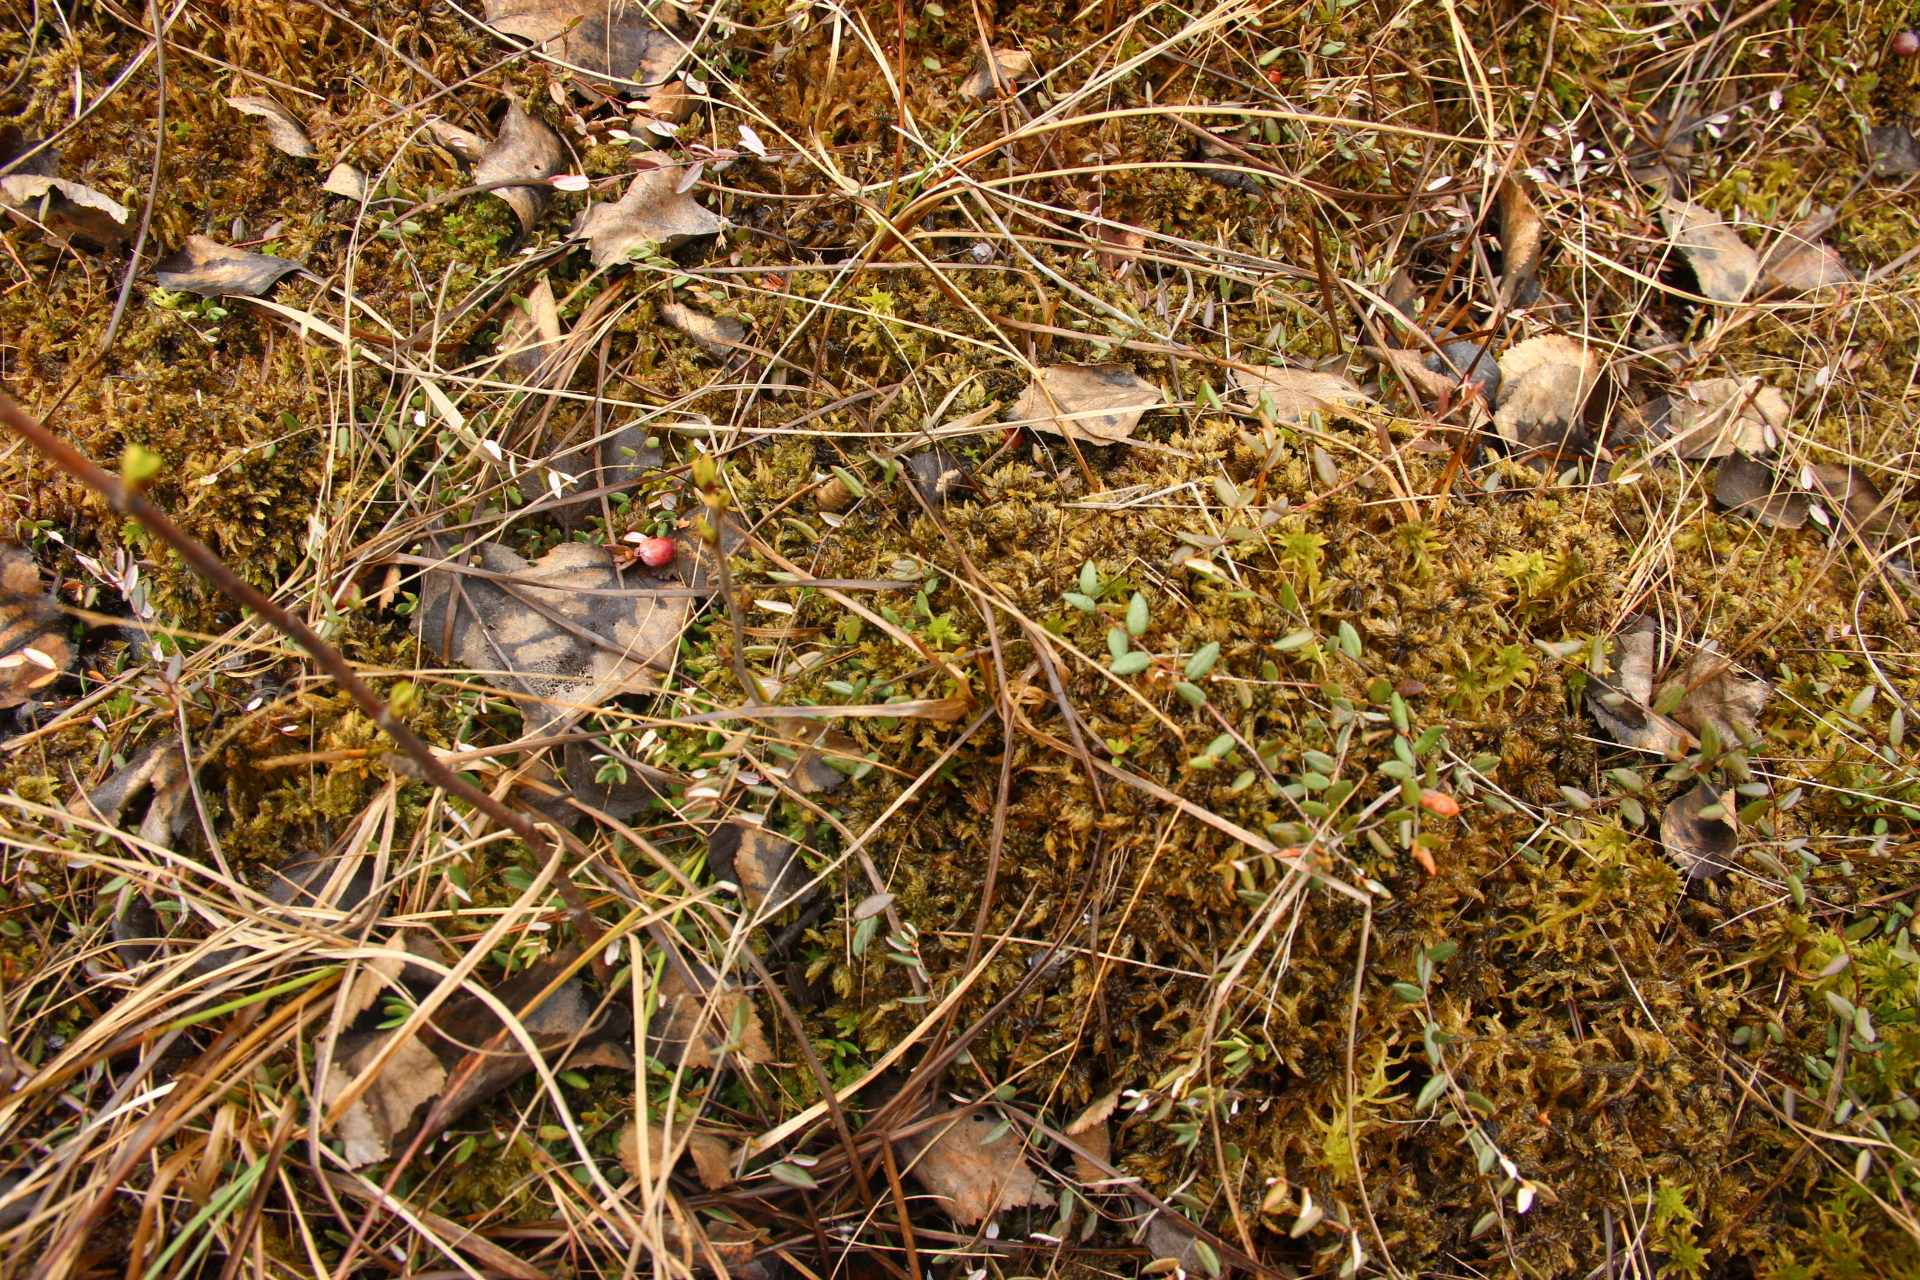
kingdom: Plantae
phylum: Tracheophyta
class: Magnoliopsida
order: Ericales
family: Ericaceae
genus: Vaccinium
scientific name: Vaccinium oxycoccos
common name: Cranberry
